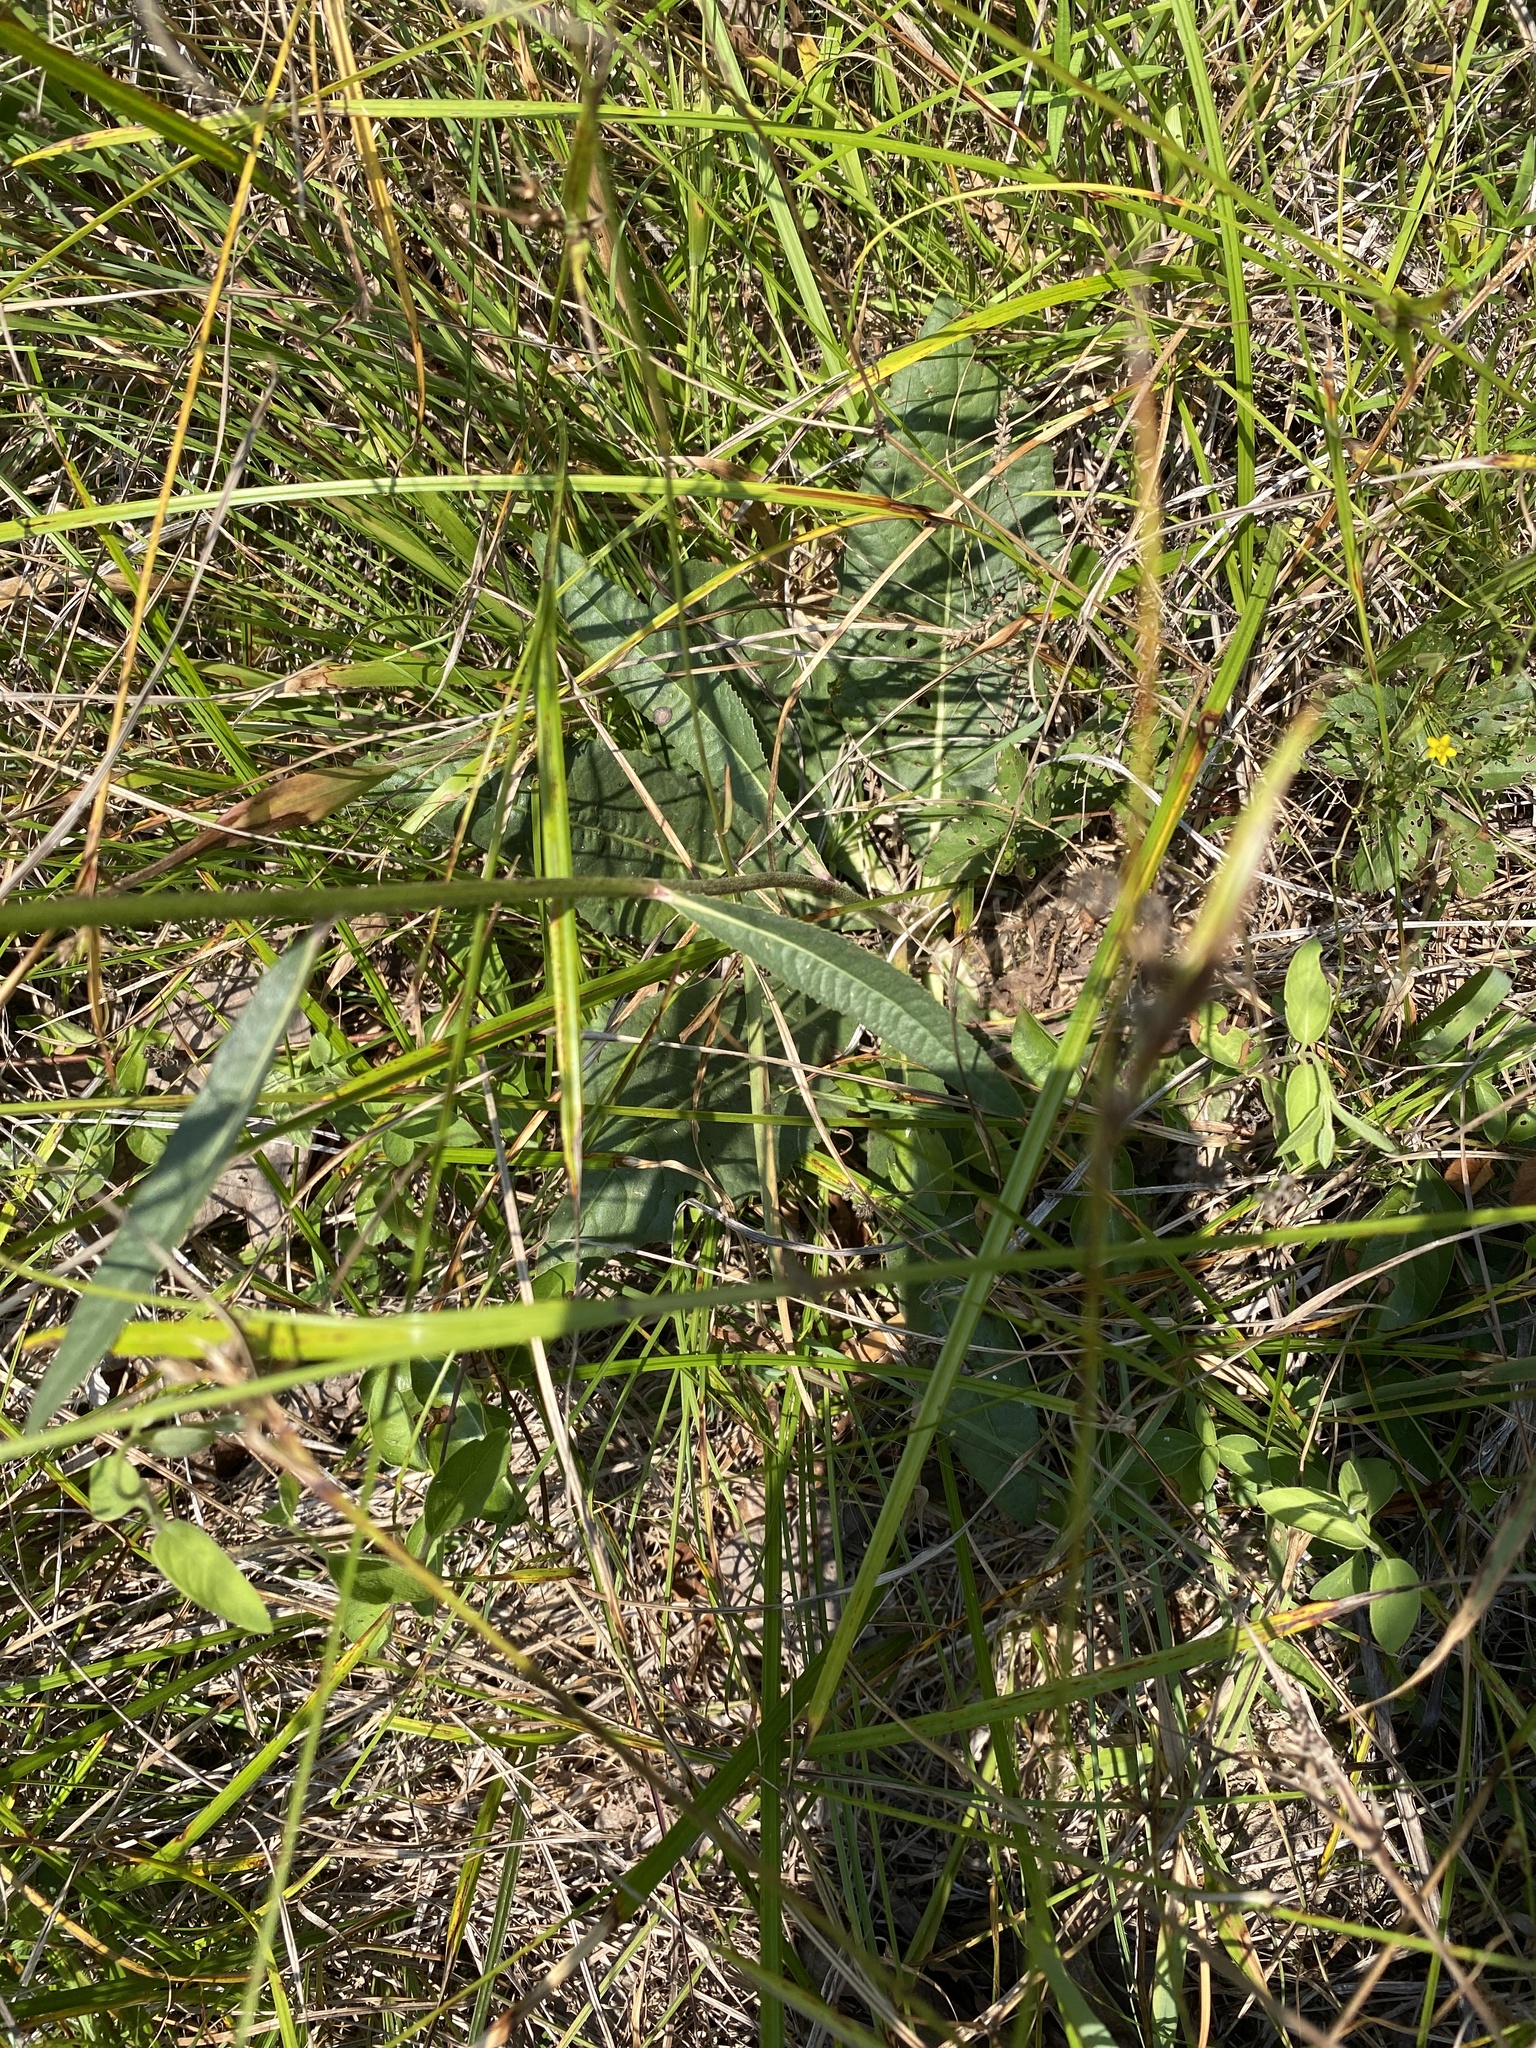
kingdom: Plantae
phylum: Tracheophyta
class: Magnoliopsida
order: Asterales
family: Asteraceae
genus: Vernonia
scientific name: Vernonia acaulis
